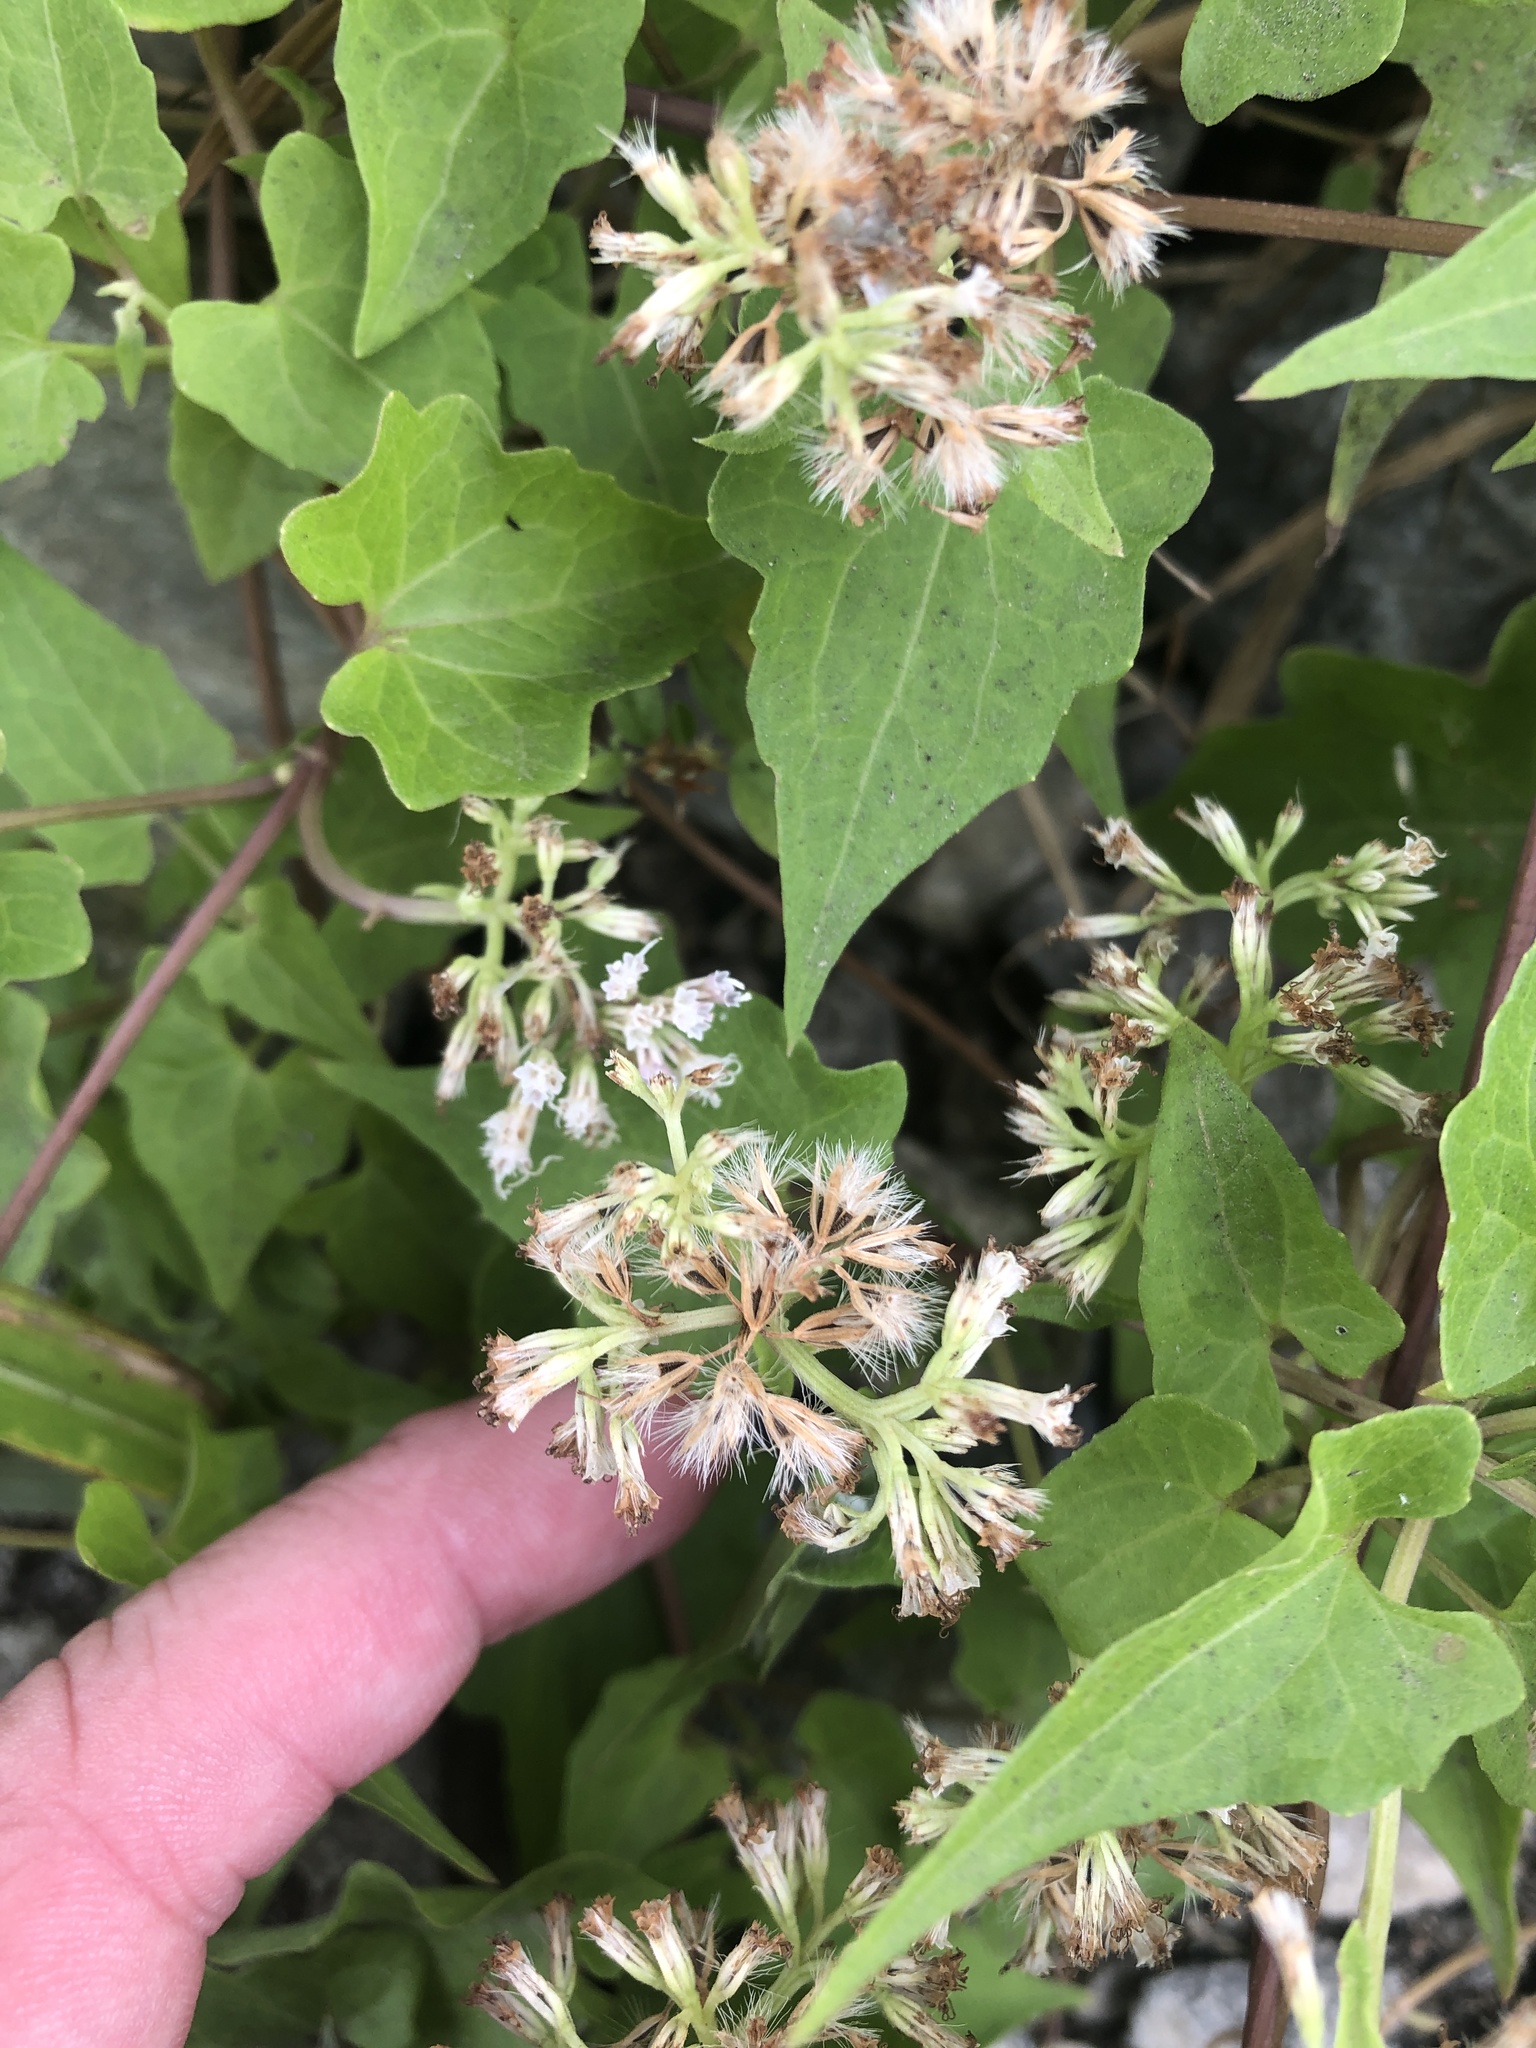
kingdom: Plantae
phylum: Tracheophyta
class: Magnoliopsida
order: Asterales
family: Asteraceae
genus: Mikania
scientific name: Mikania scandens
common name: Climbing hempvine
